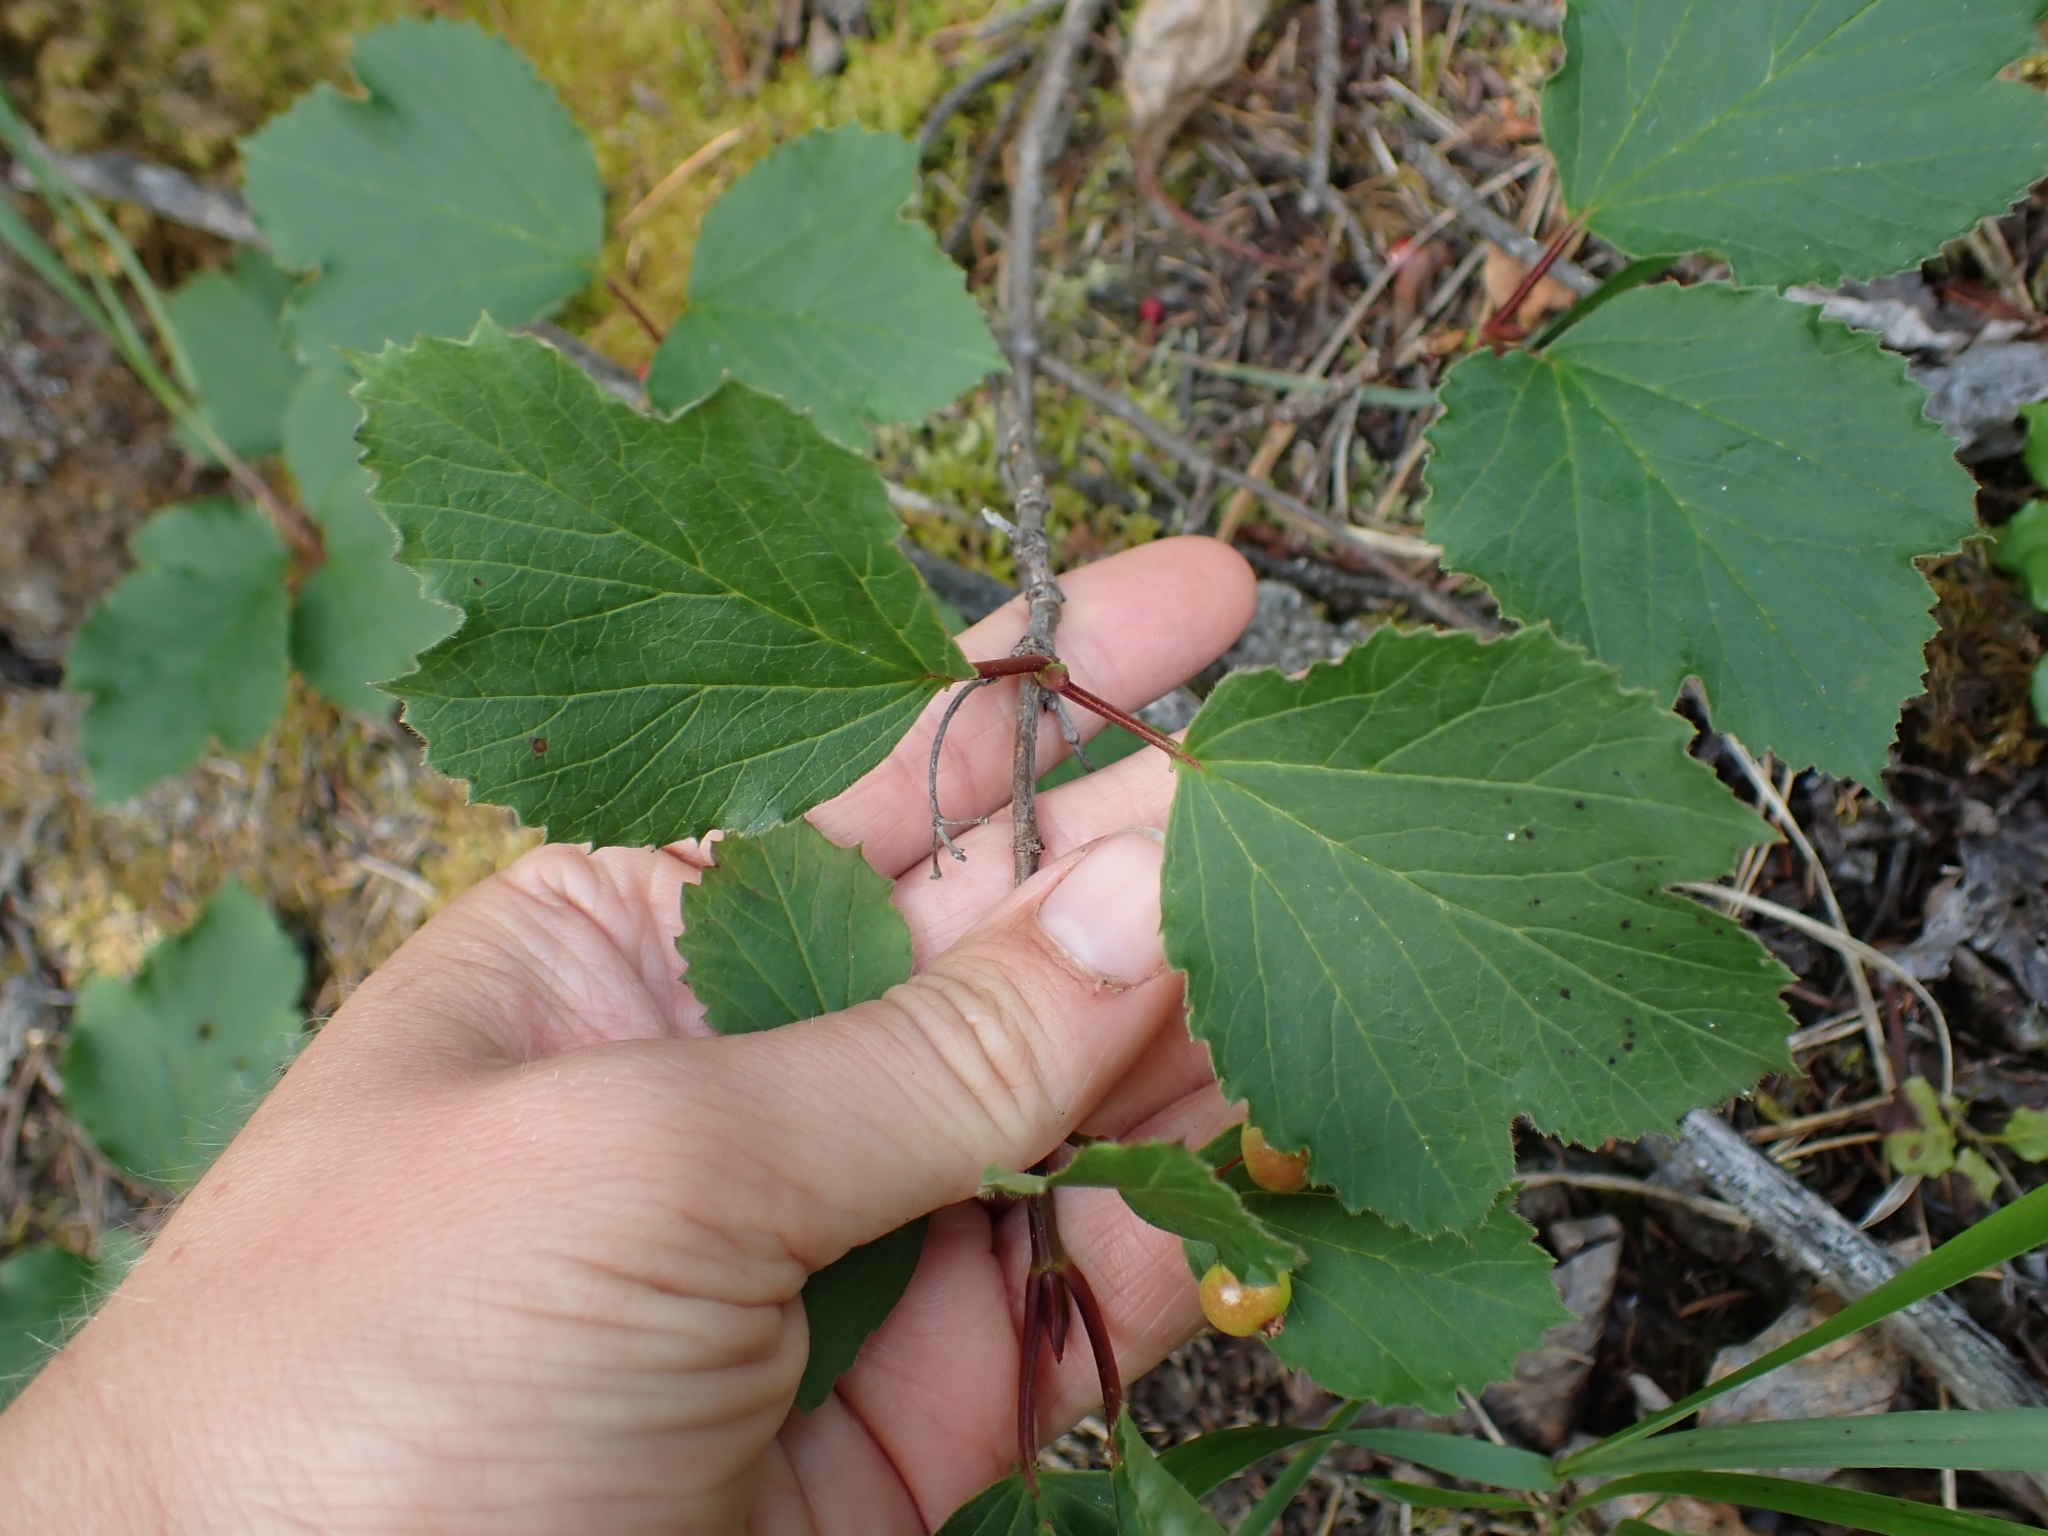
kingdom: Plantae
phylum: Tracheophyta
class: Magnoliopsida
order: Dipsacales
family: Viburnaceae
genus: Viburnum
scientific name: Viburnum edule
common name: Mooseberry
